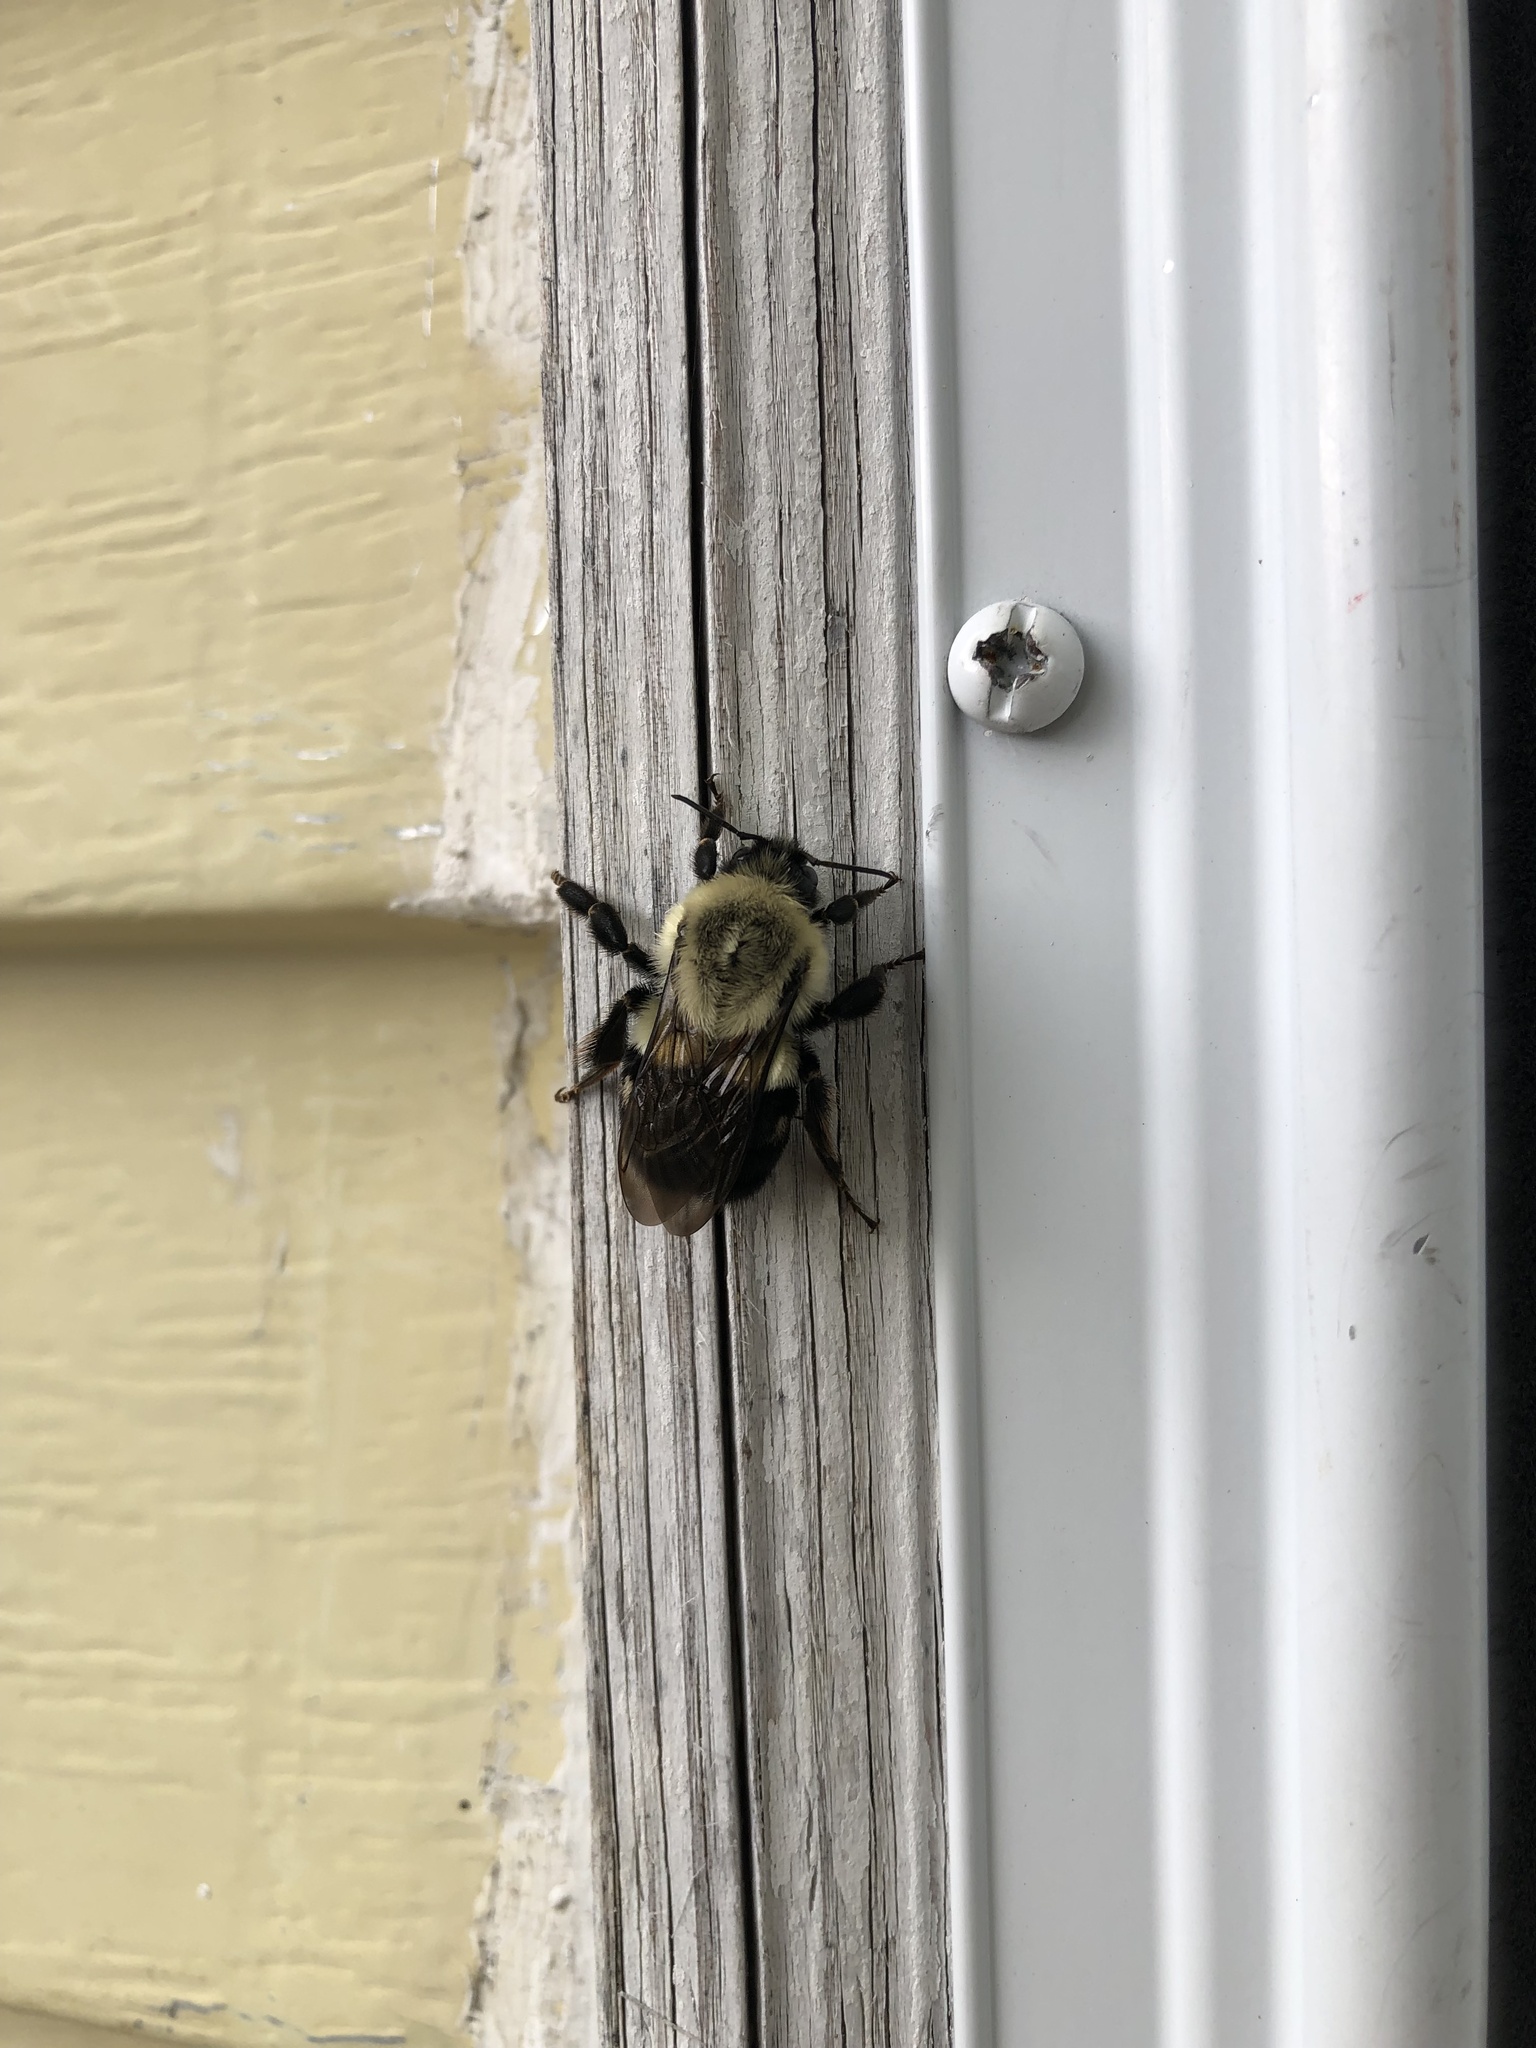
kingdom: Animalia
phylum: Arthropoda
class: Insecta
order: Hymenoptera
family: Apidae
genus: Bombus
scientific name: Bombus impatiens
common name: Common eastern bumble bee
